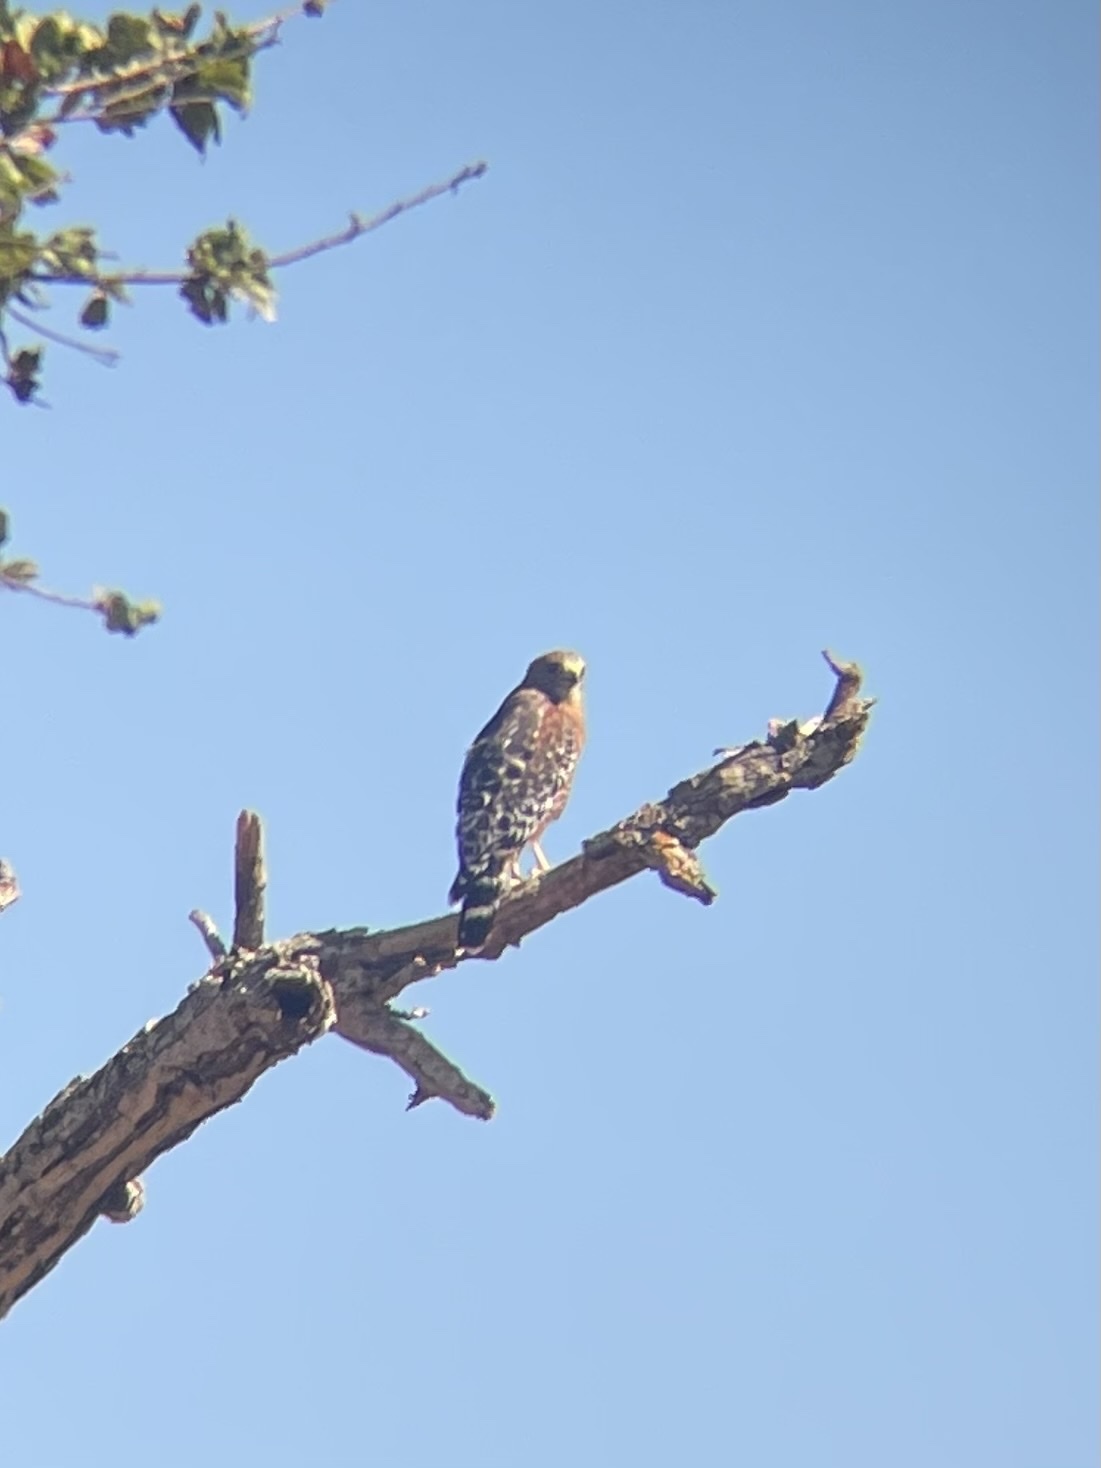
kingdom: Animalia
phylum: Chordata
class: Aves
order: Accipitriformes
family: Accipitridae
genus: Buteo
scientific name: Buteo lineatus
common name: Red-shouldered hawk
